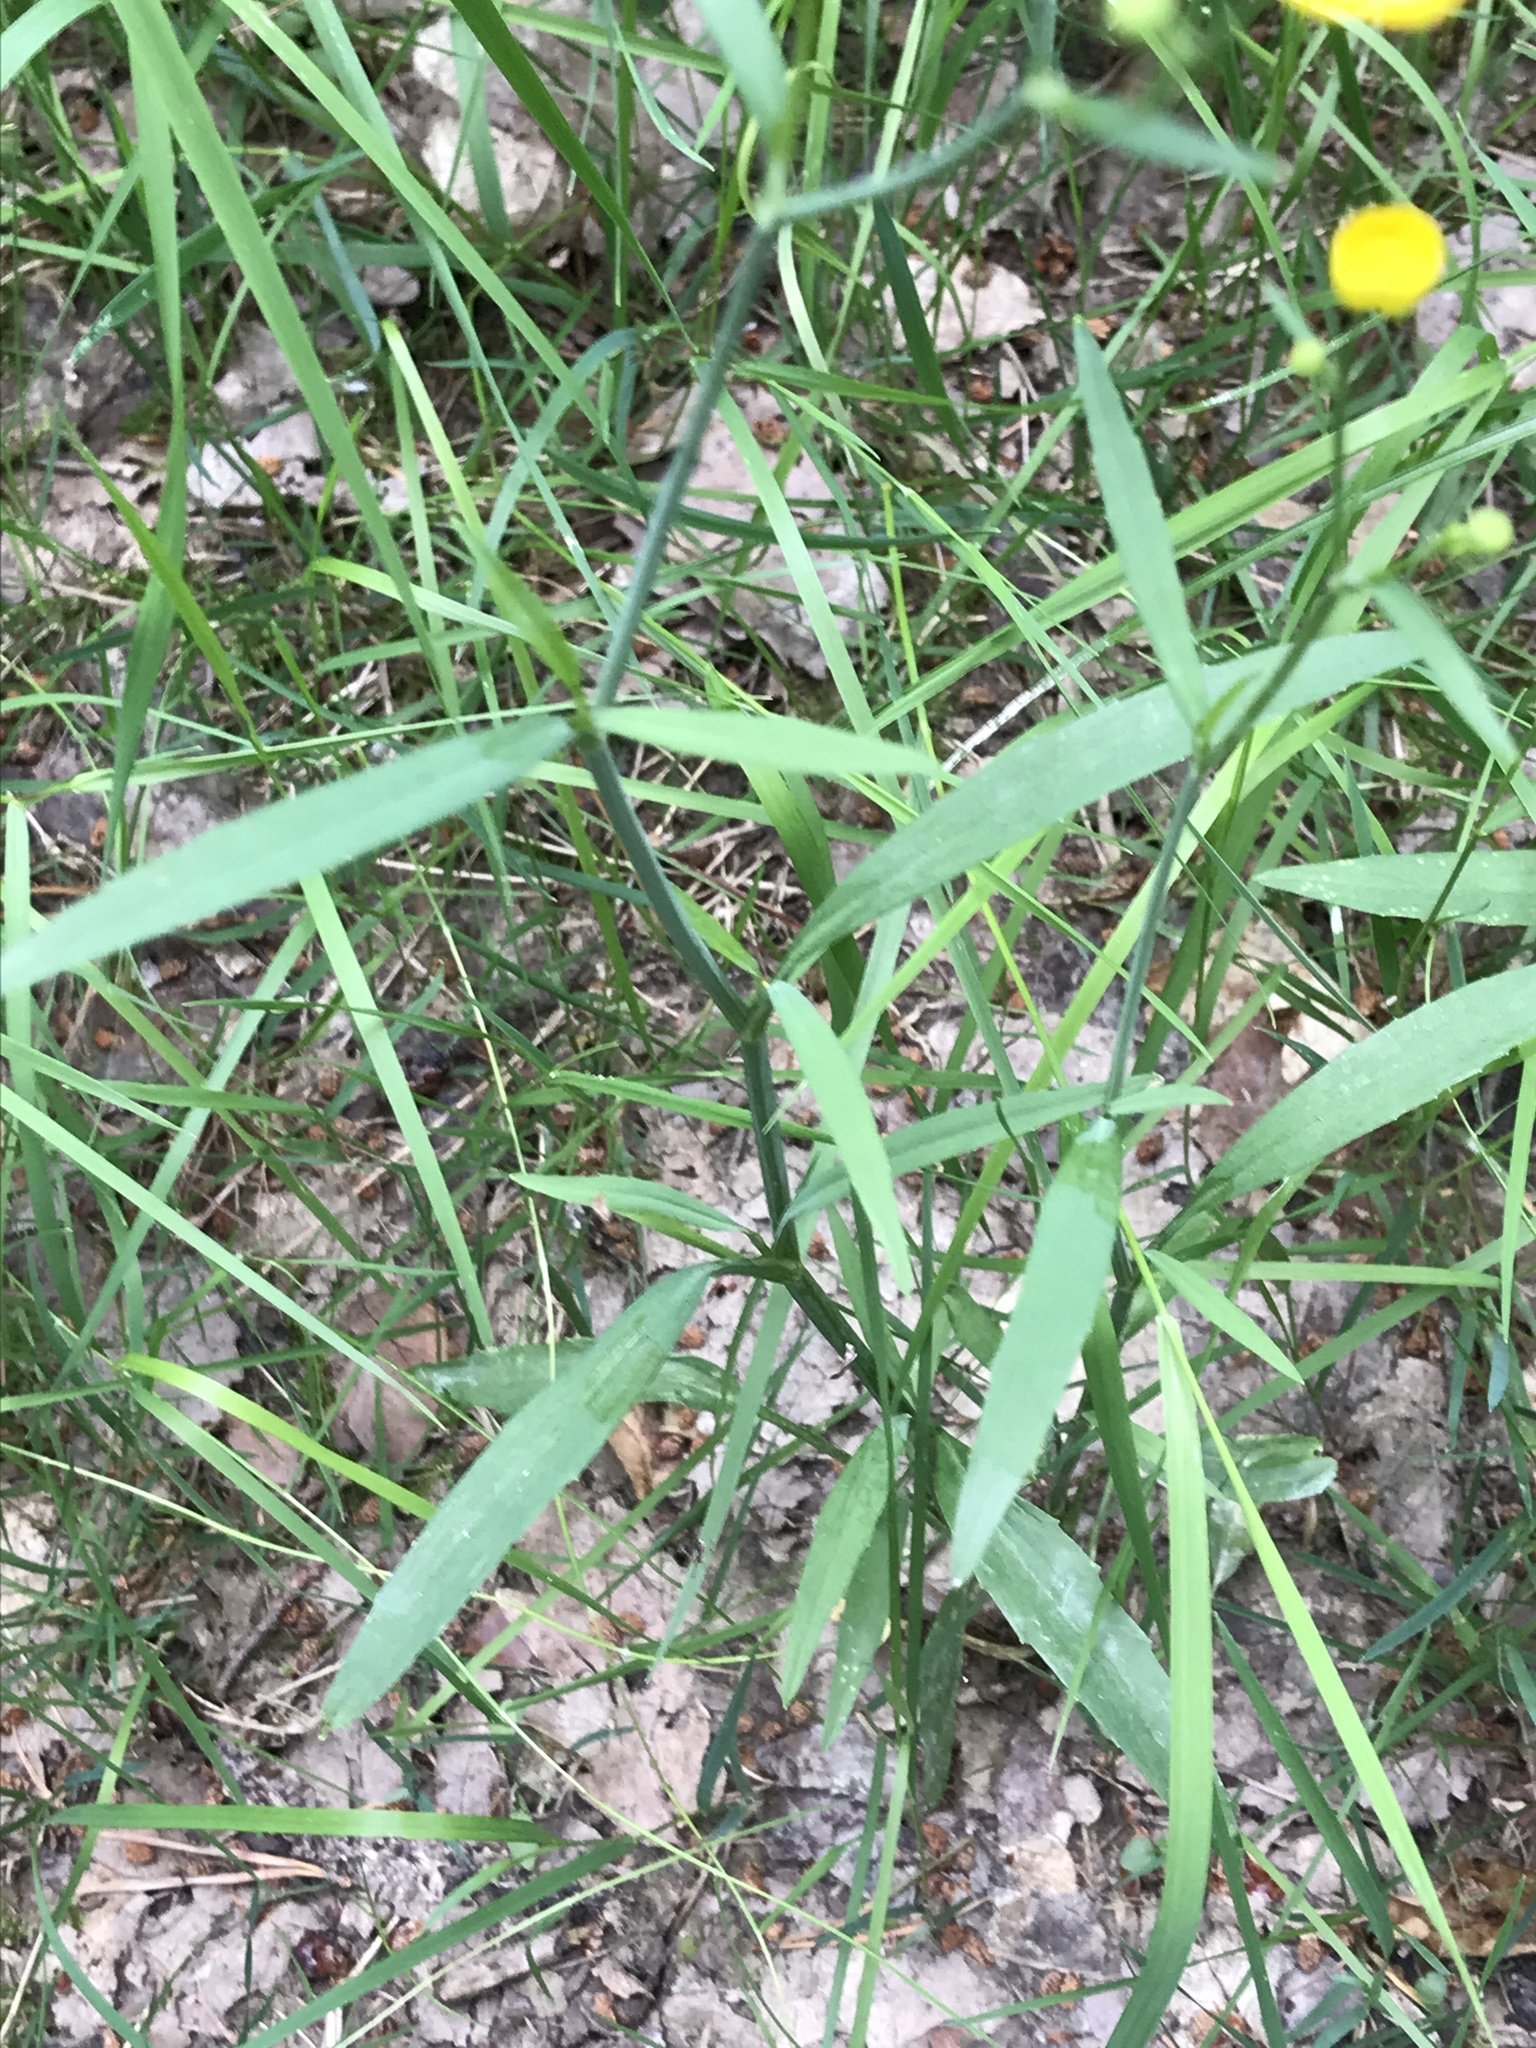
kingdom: Plantae
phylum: Tracheophyta
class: Magnoliopsida
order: Ranunculales
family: Ranunculaceae
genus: Ranunculus
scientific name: Ranunculus acris
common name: Meadow buttercup
